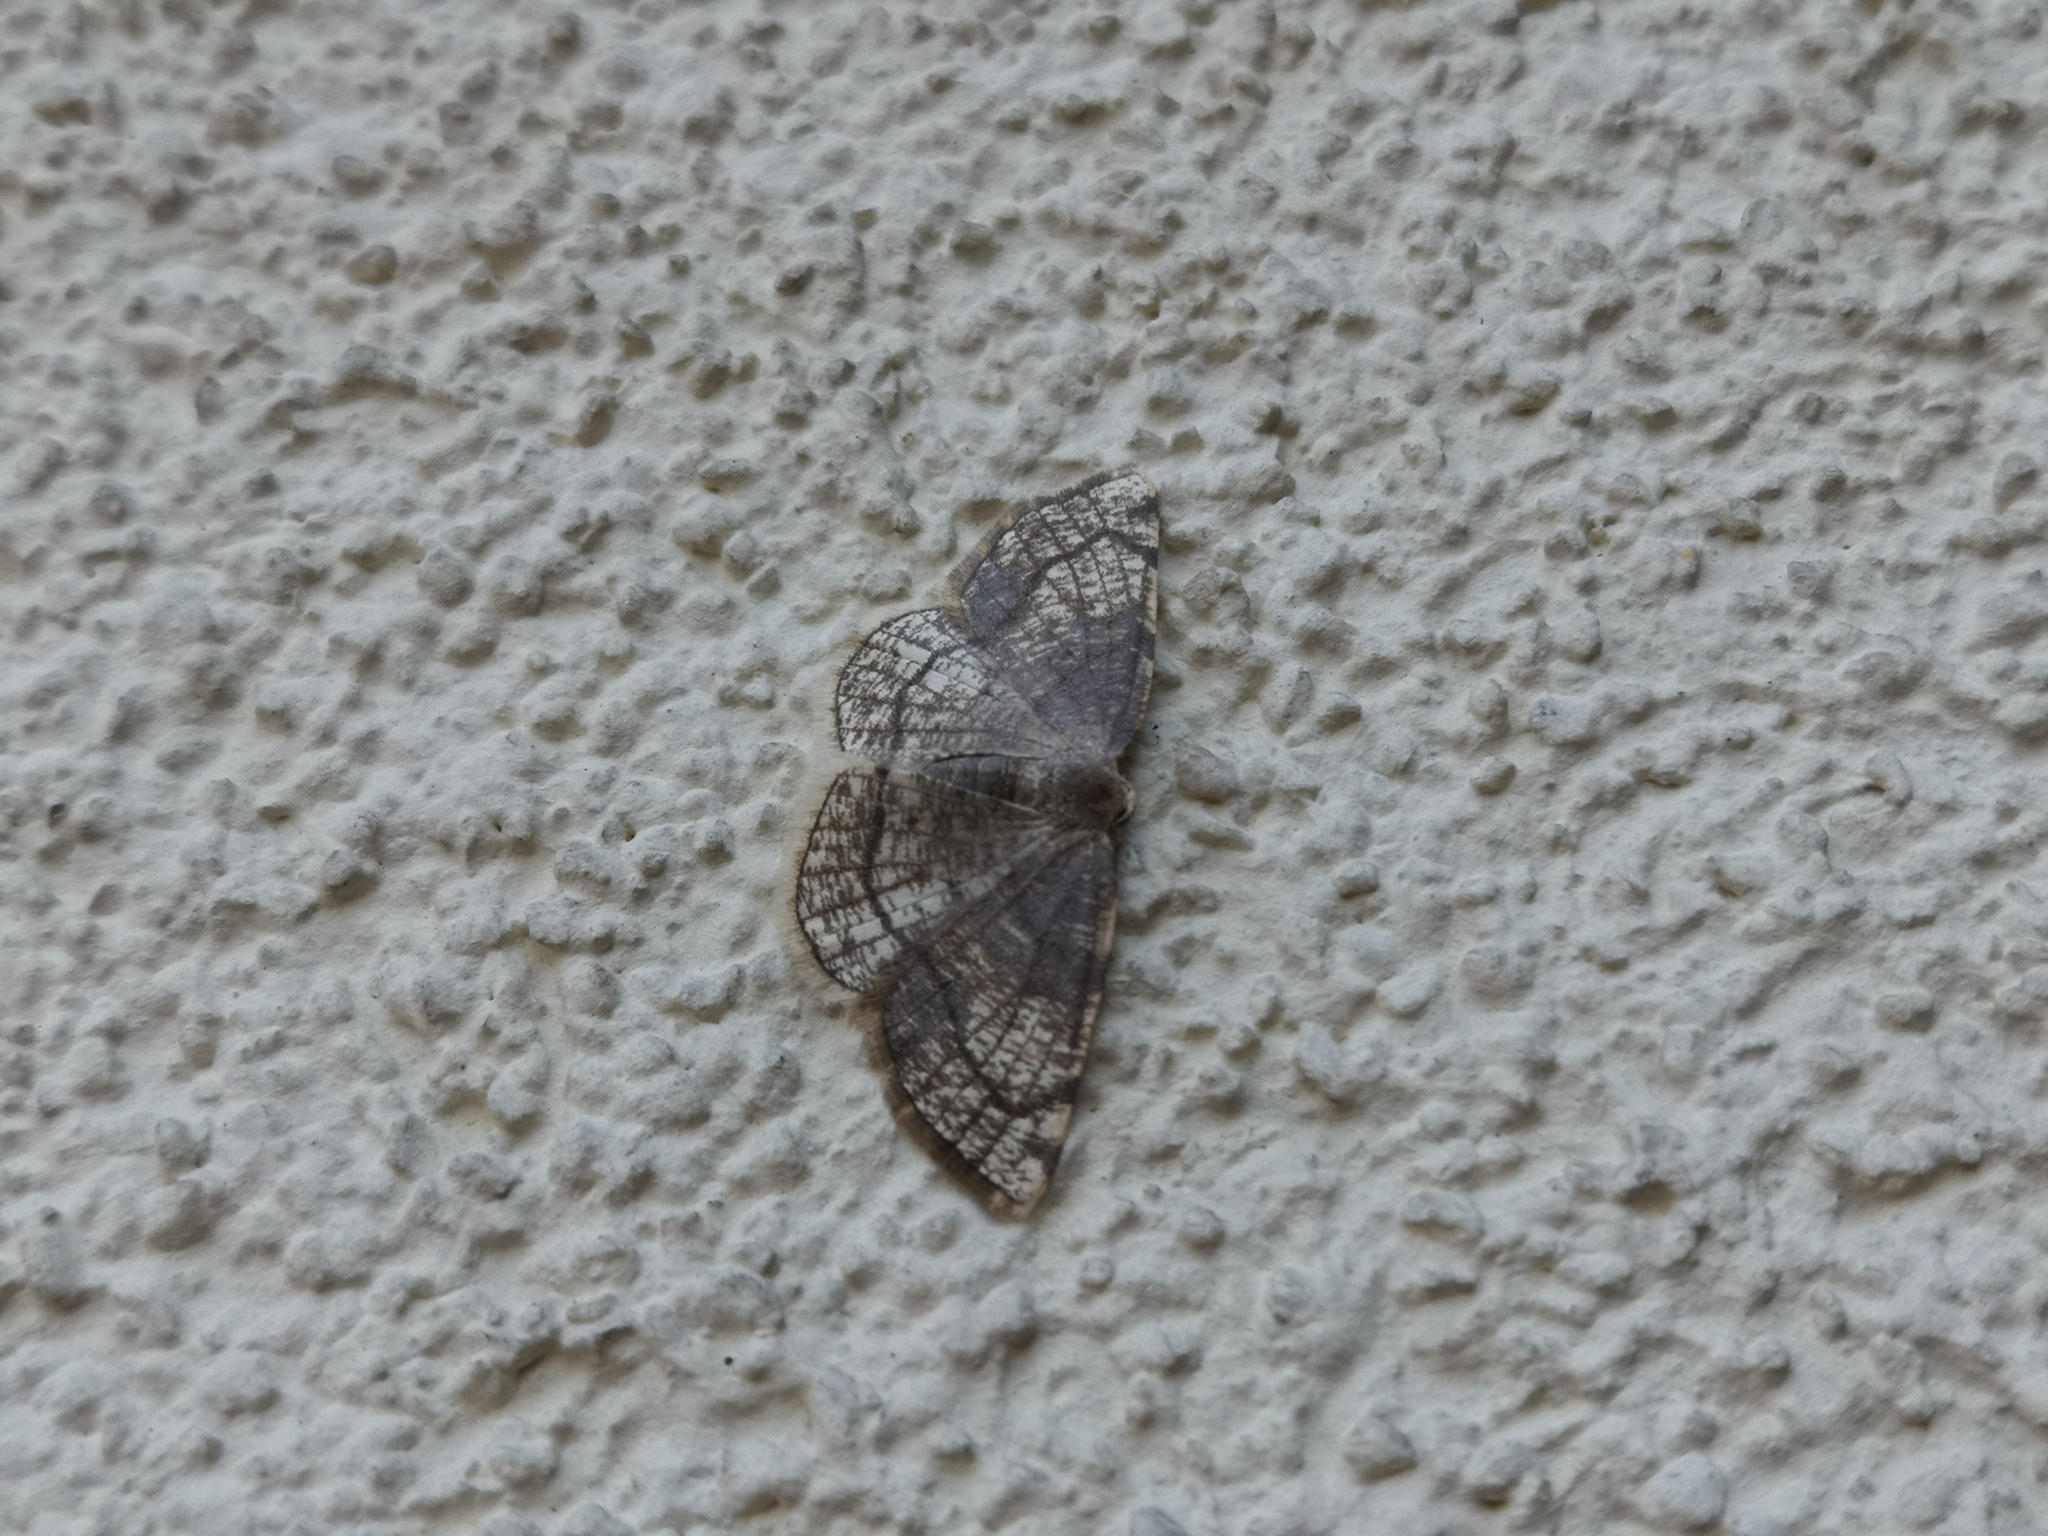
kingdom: Animalia
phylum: Arthropoda
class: Insecta
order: Lepidoptera
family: Geometridae
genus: Stegania
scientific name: Stegania trimaculata
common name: Dorset cream wave
